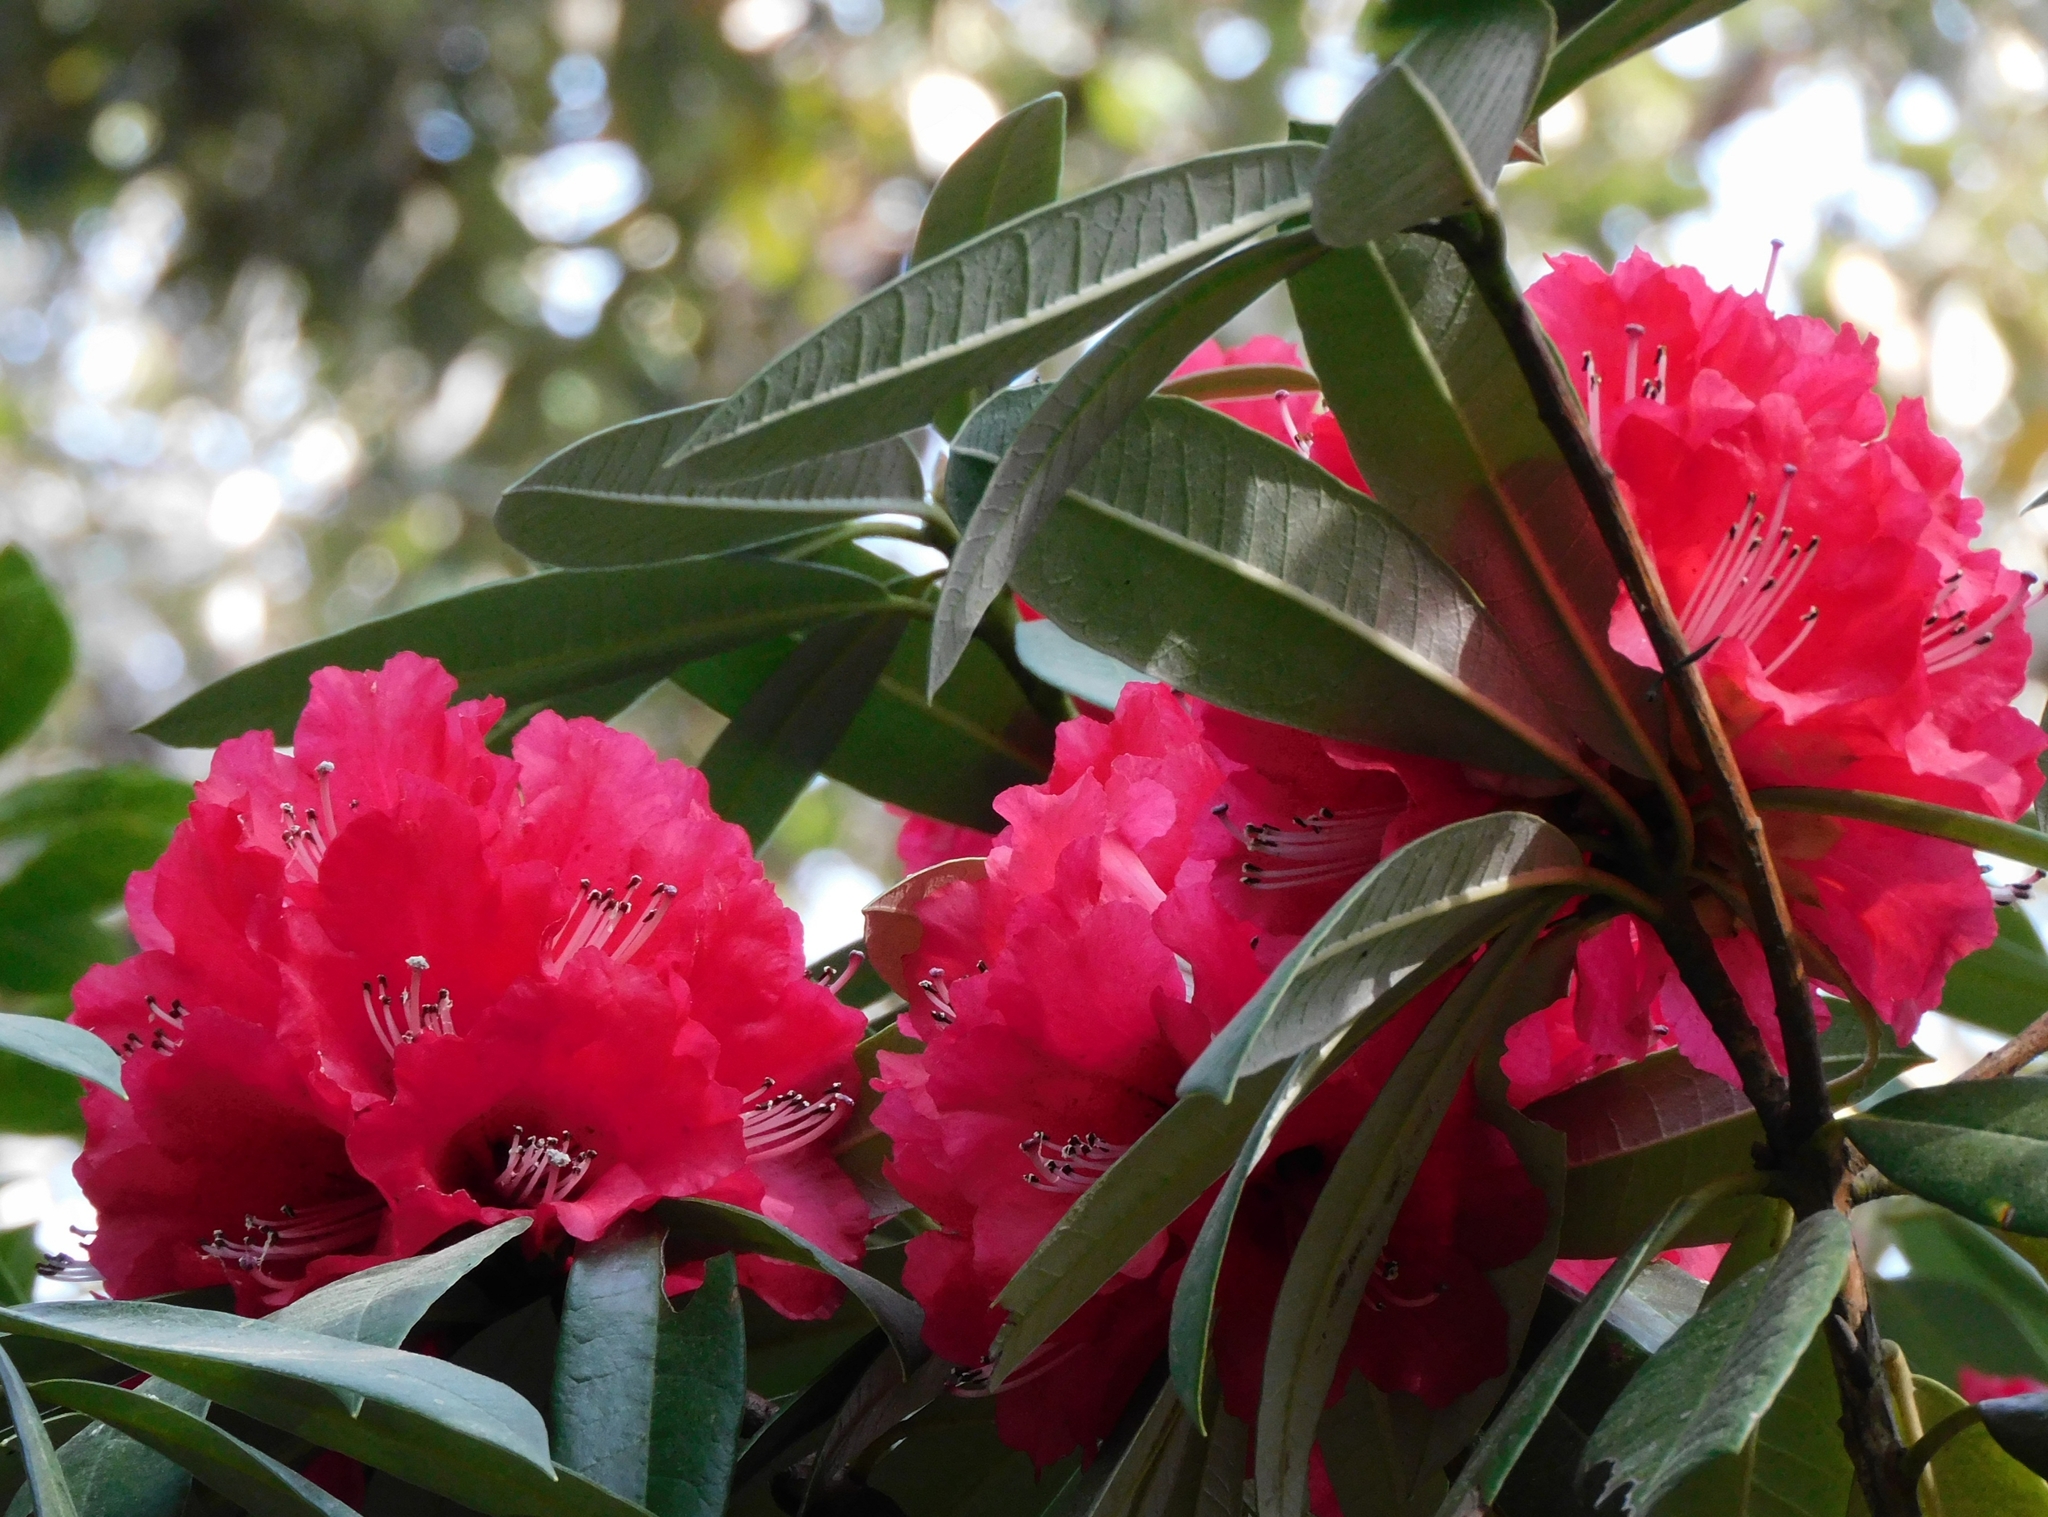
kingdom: Plantae
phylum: Tracheophyta
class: Magnoliopsida
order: Ericales
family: Ericaceae
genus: Rhododendron
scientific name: Rhododendron arboreum
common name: Tree rhododendron
